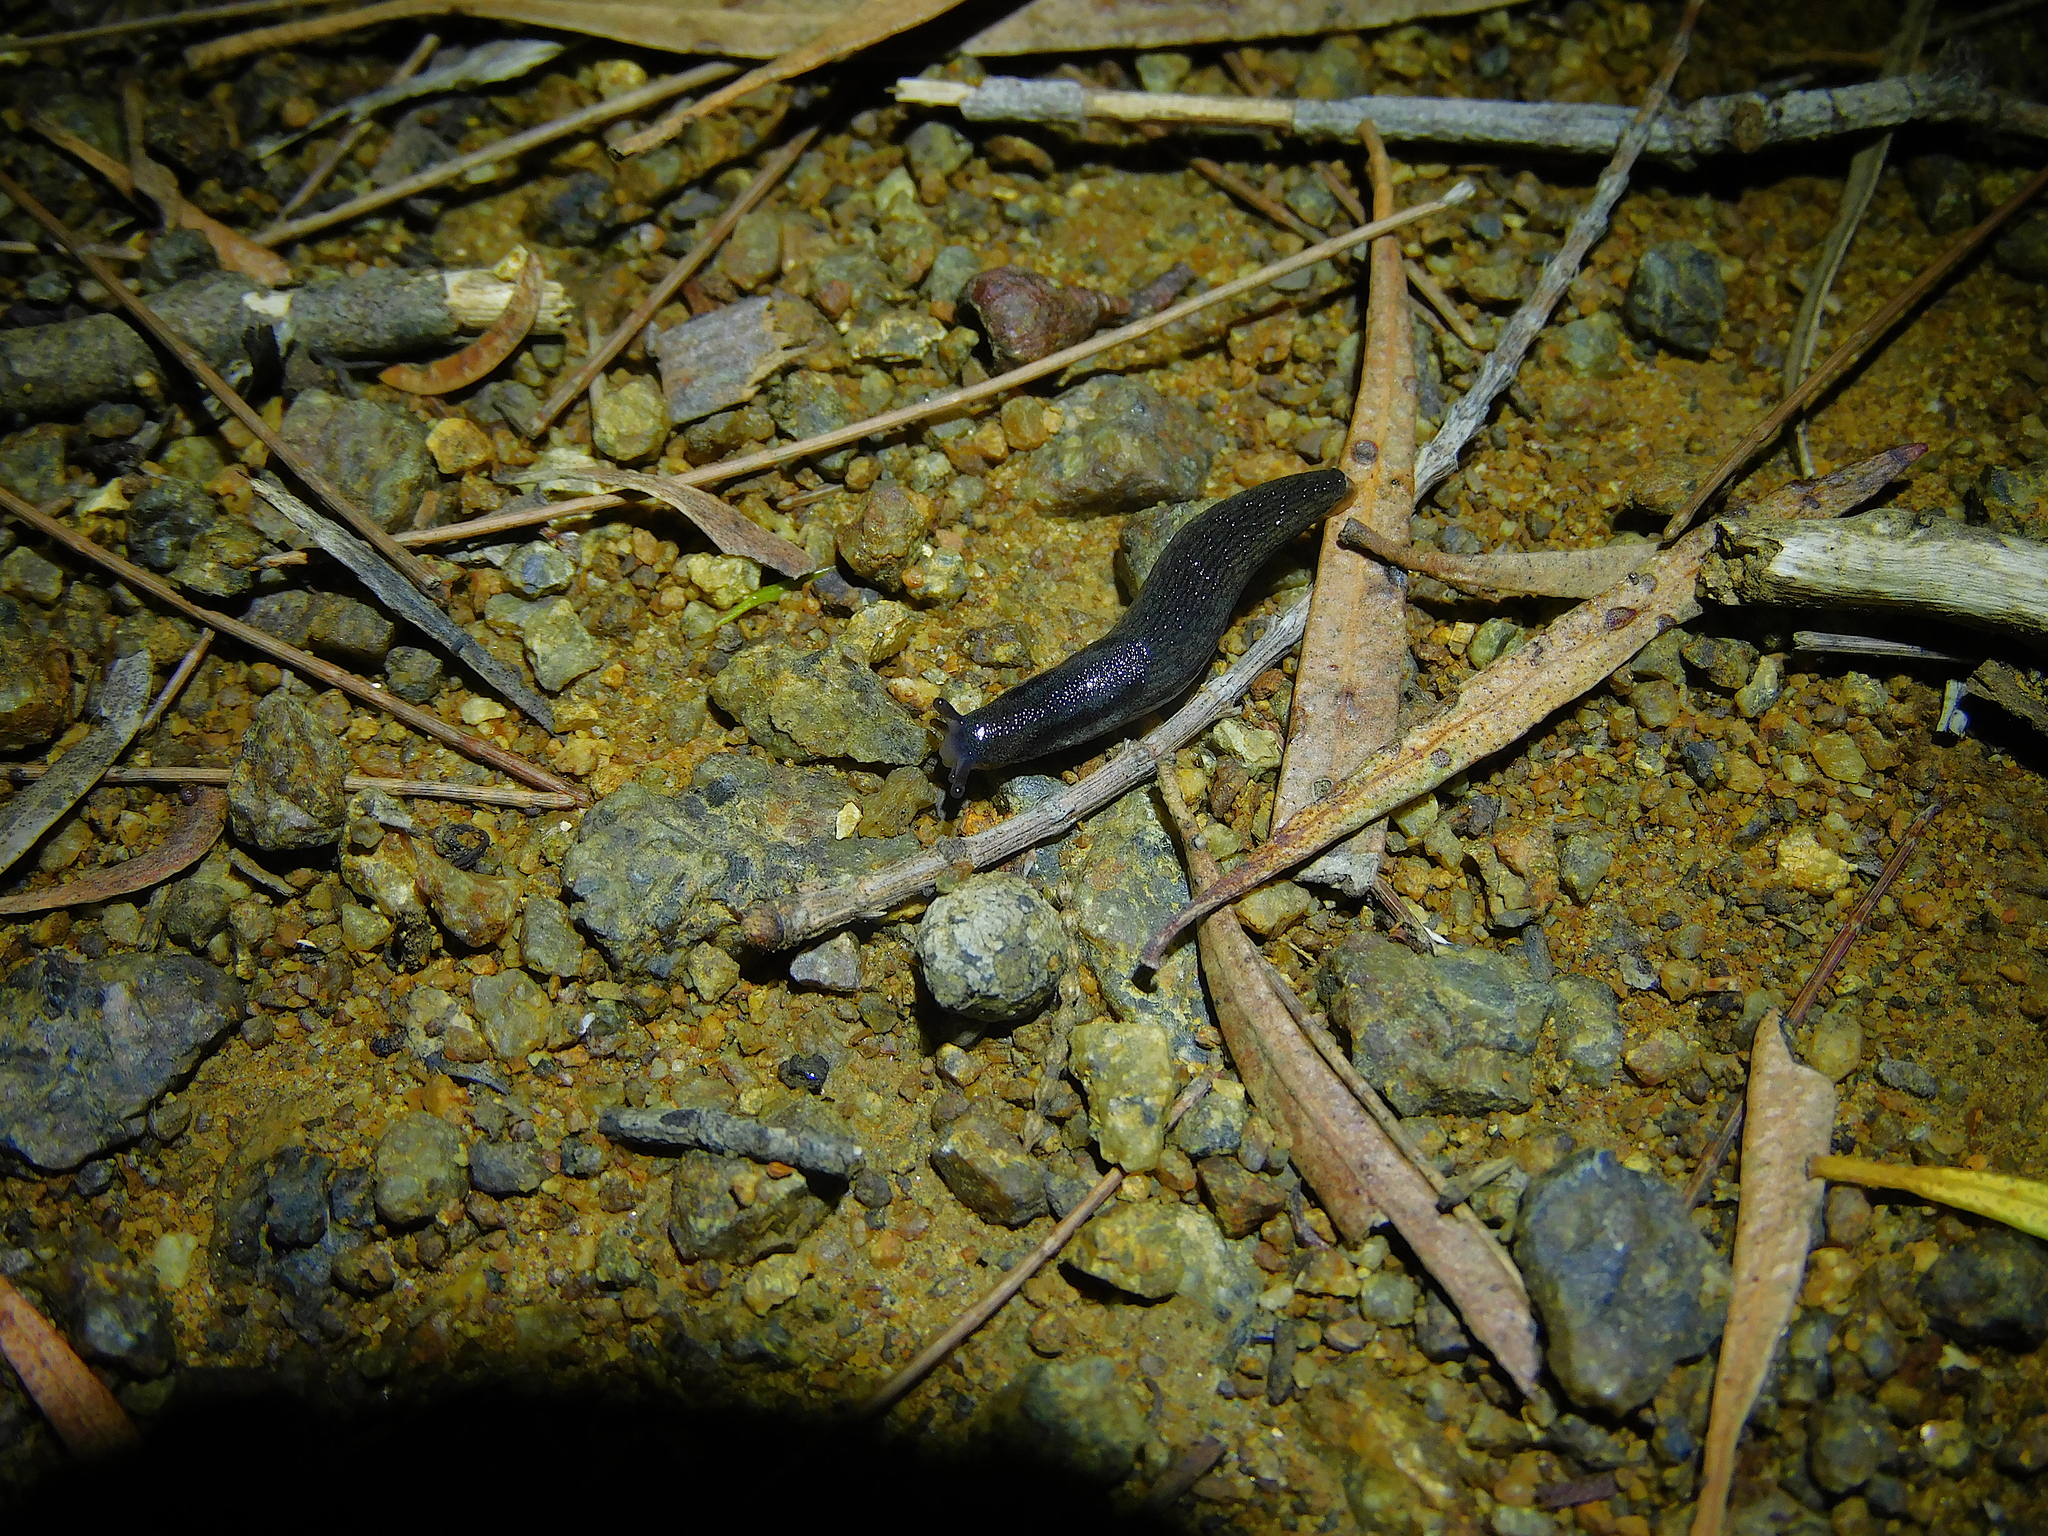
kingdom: Animalia
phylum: Mollusca
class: Gastropoda
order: Stylommatophora
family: Arionidae
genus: Arion
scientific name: Arion hortensis
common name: Garden arion
